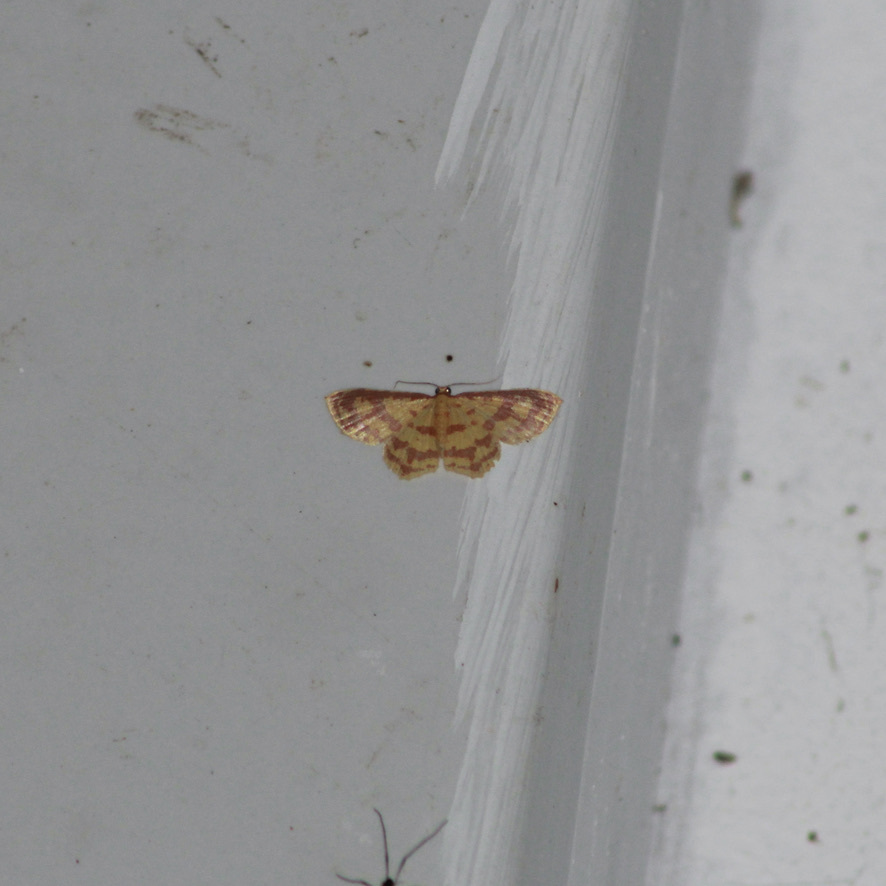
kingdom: Animalia
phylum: Arthropoda
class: Insecta
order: Lepidoptera
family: Geometridae
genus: Eois
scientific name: Eois binaria
